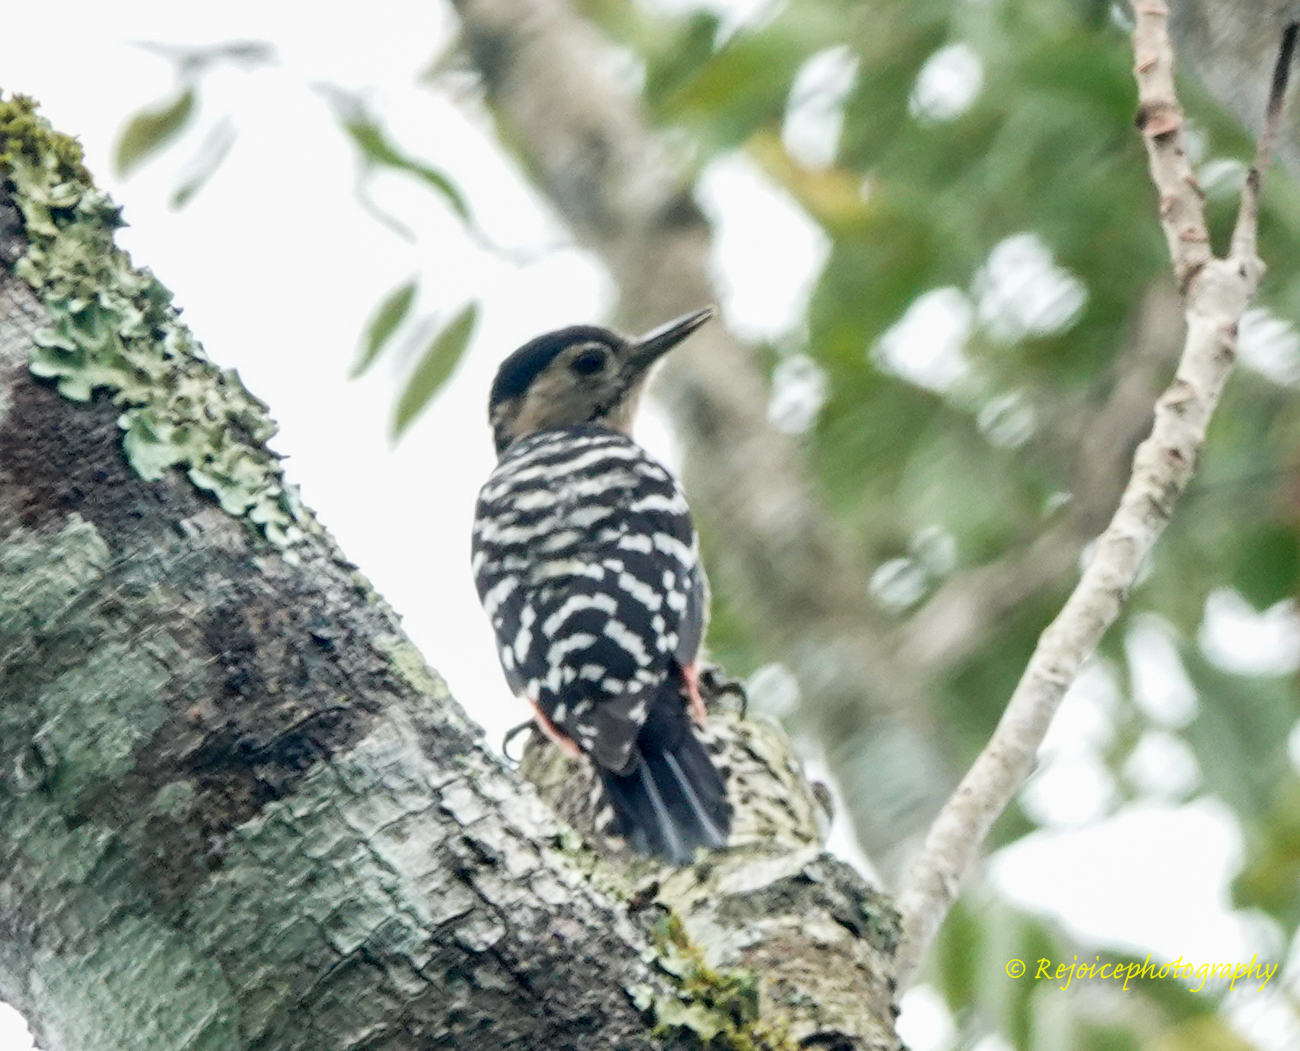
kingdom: Animalia
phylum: Chordata
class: Aves
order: Piciformes
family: Picidae
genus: Dendrocopos
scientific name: Dendrocopos atratus
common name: Stripe-breasted woodpecker
